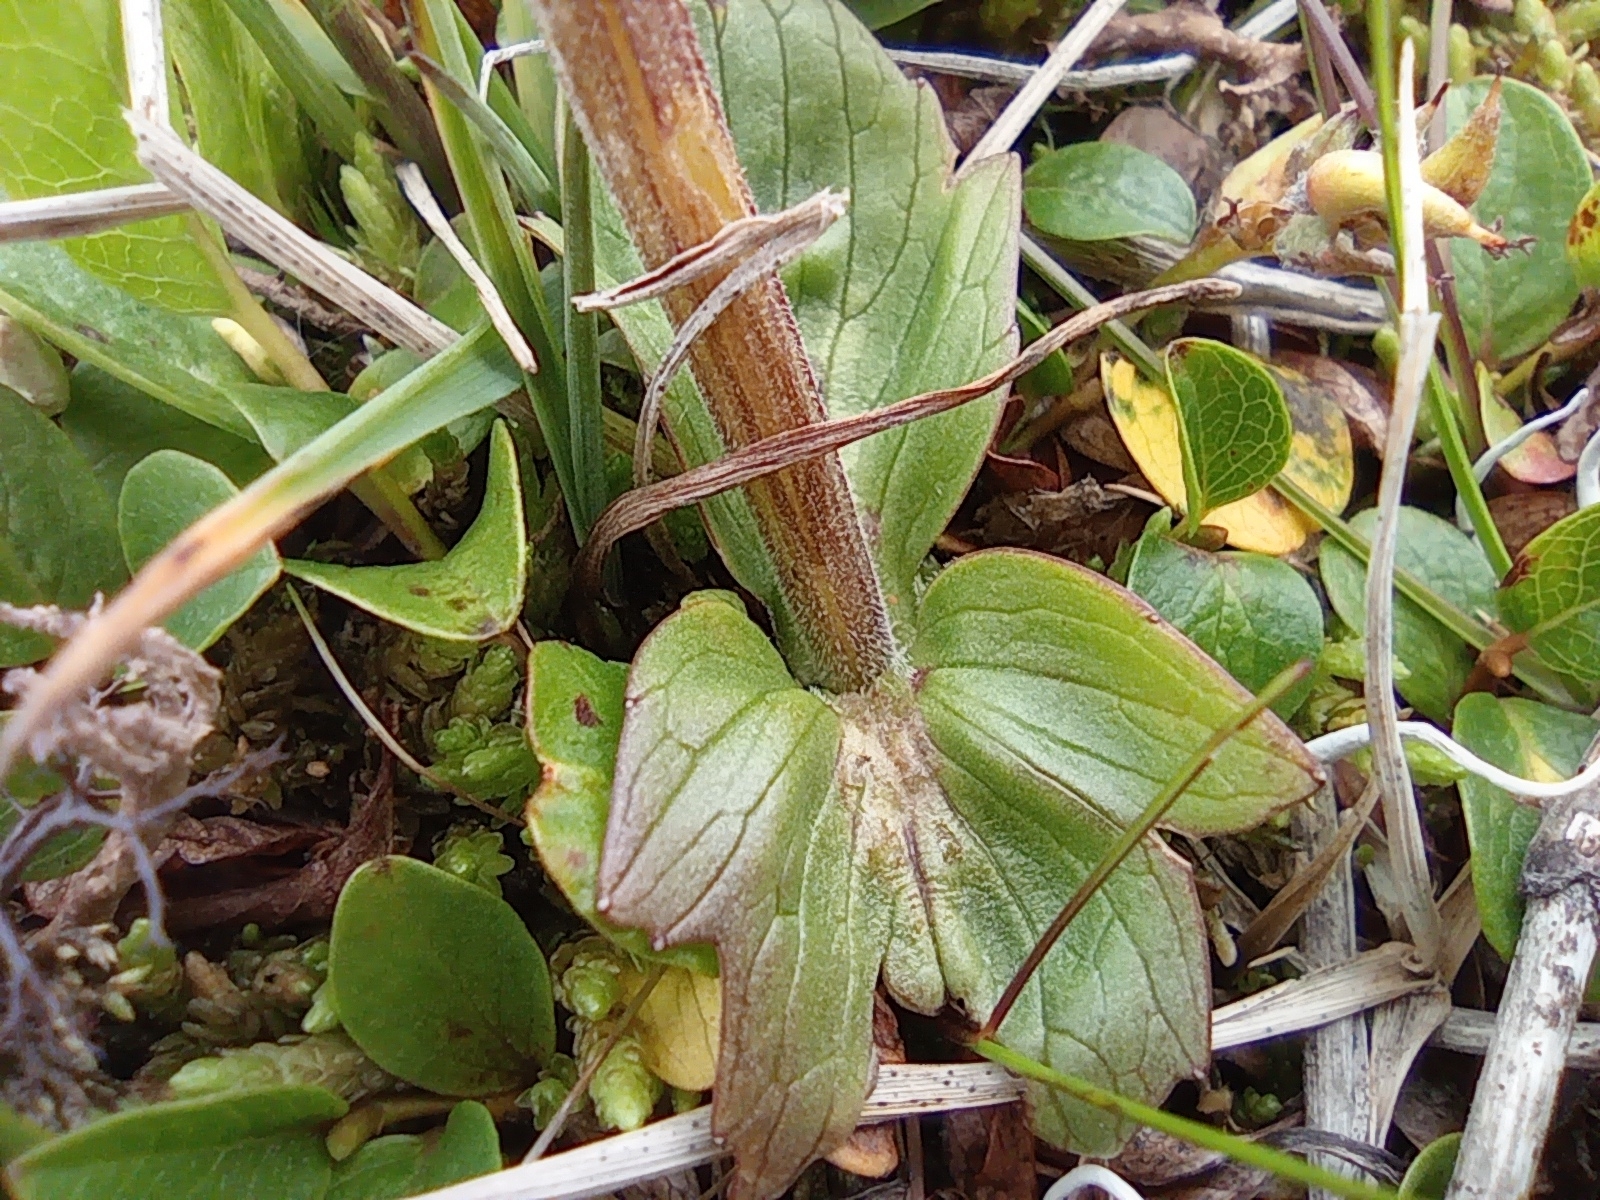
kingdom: Plantae
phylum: Tracheophyta
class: Magnoliopsida
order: Dipsacales
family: Caprifoliaceae
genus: Valeriana
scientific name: Valeriana capitata
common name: Capitate valerian
